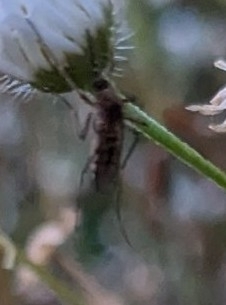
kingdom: Animalia
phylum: Arthropoda
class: Insecta
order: Diptera
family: Culicidae
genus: Aedes
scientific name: Aedes vexans
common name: Inland floodwater mosquito
